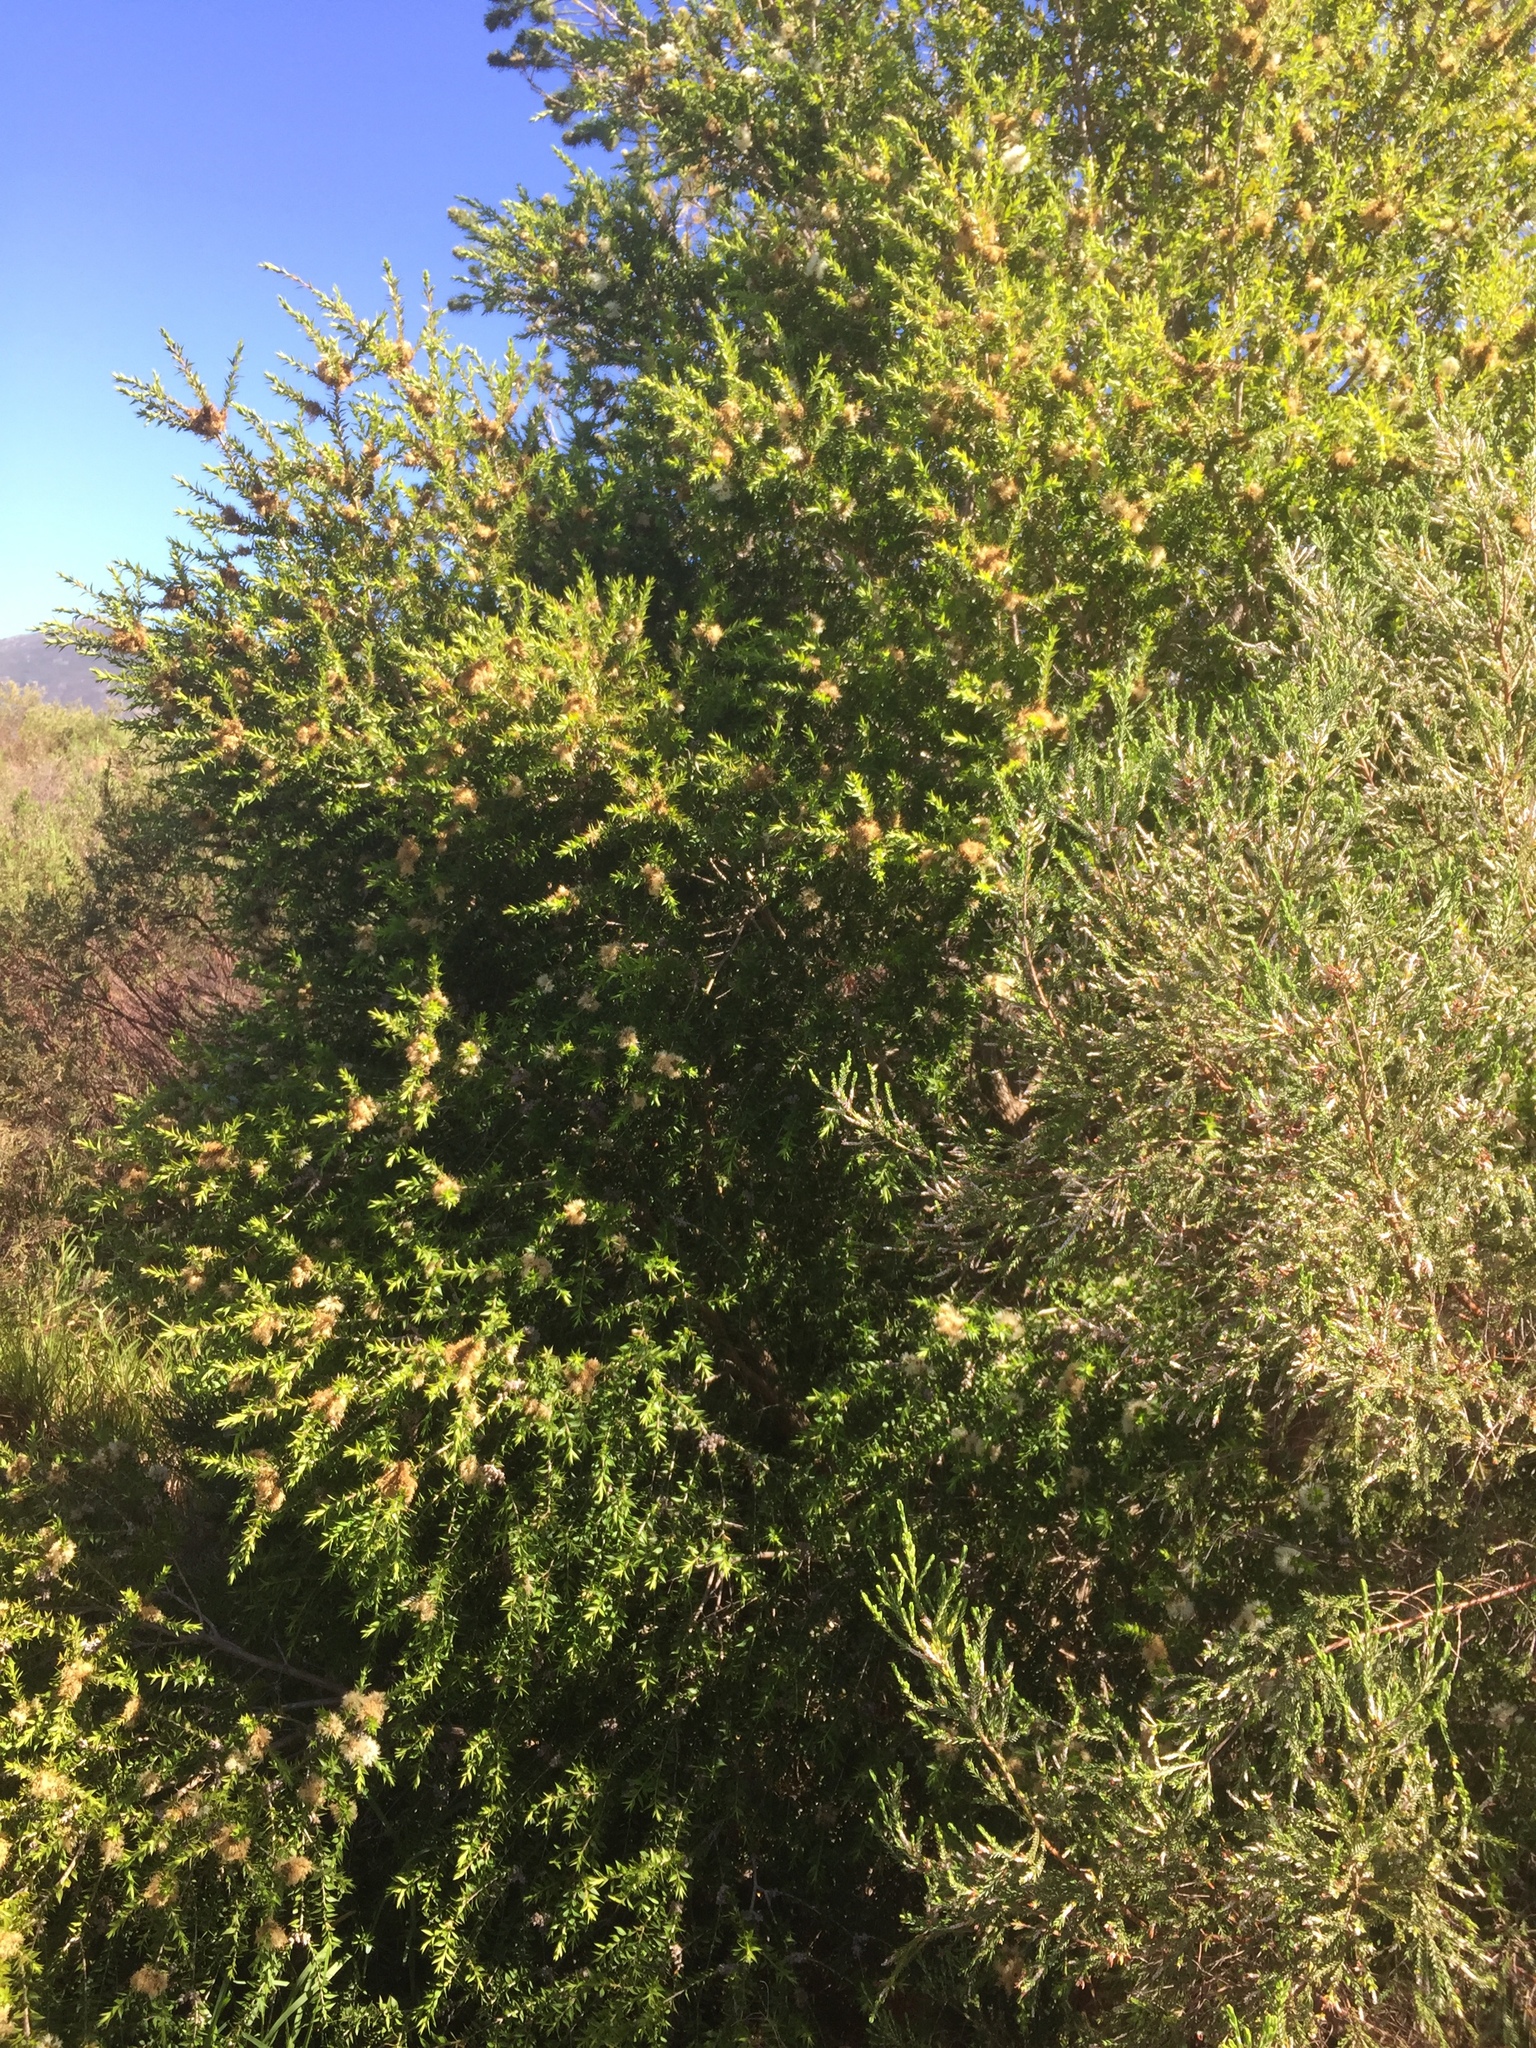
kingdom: Plantae
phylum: Tracheophyta
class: Magnoliopsida
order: Myrtales
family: Myrtaceae
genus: Melaleuca
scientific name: Melaleuca styphelioides
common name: Prickly paperbark
